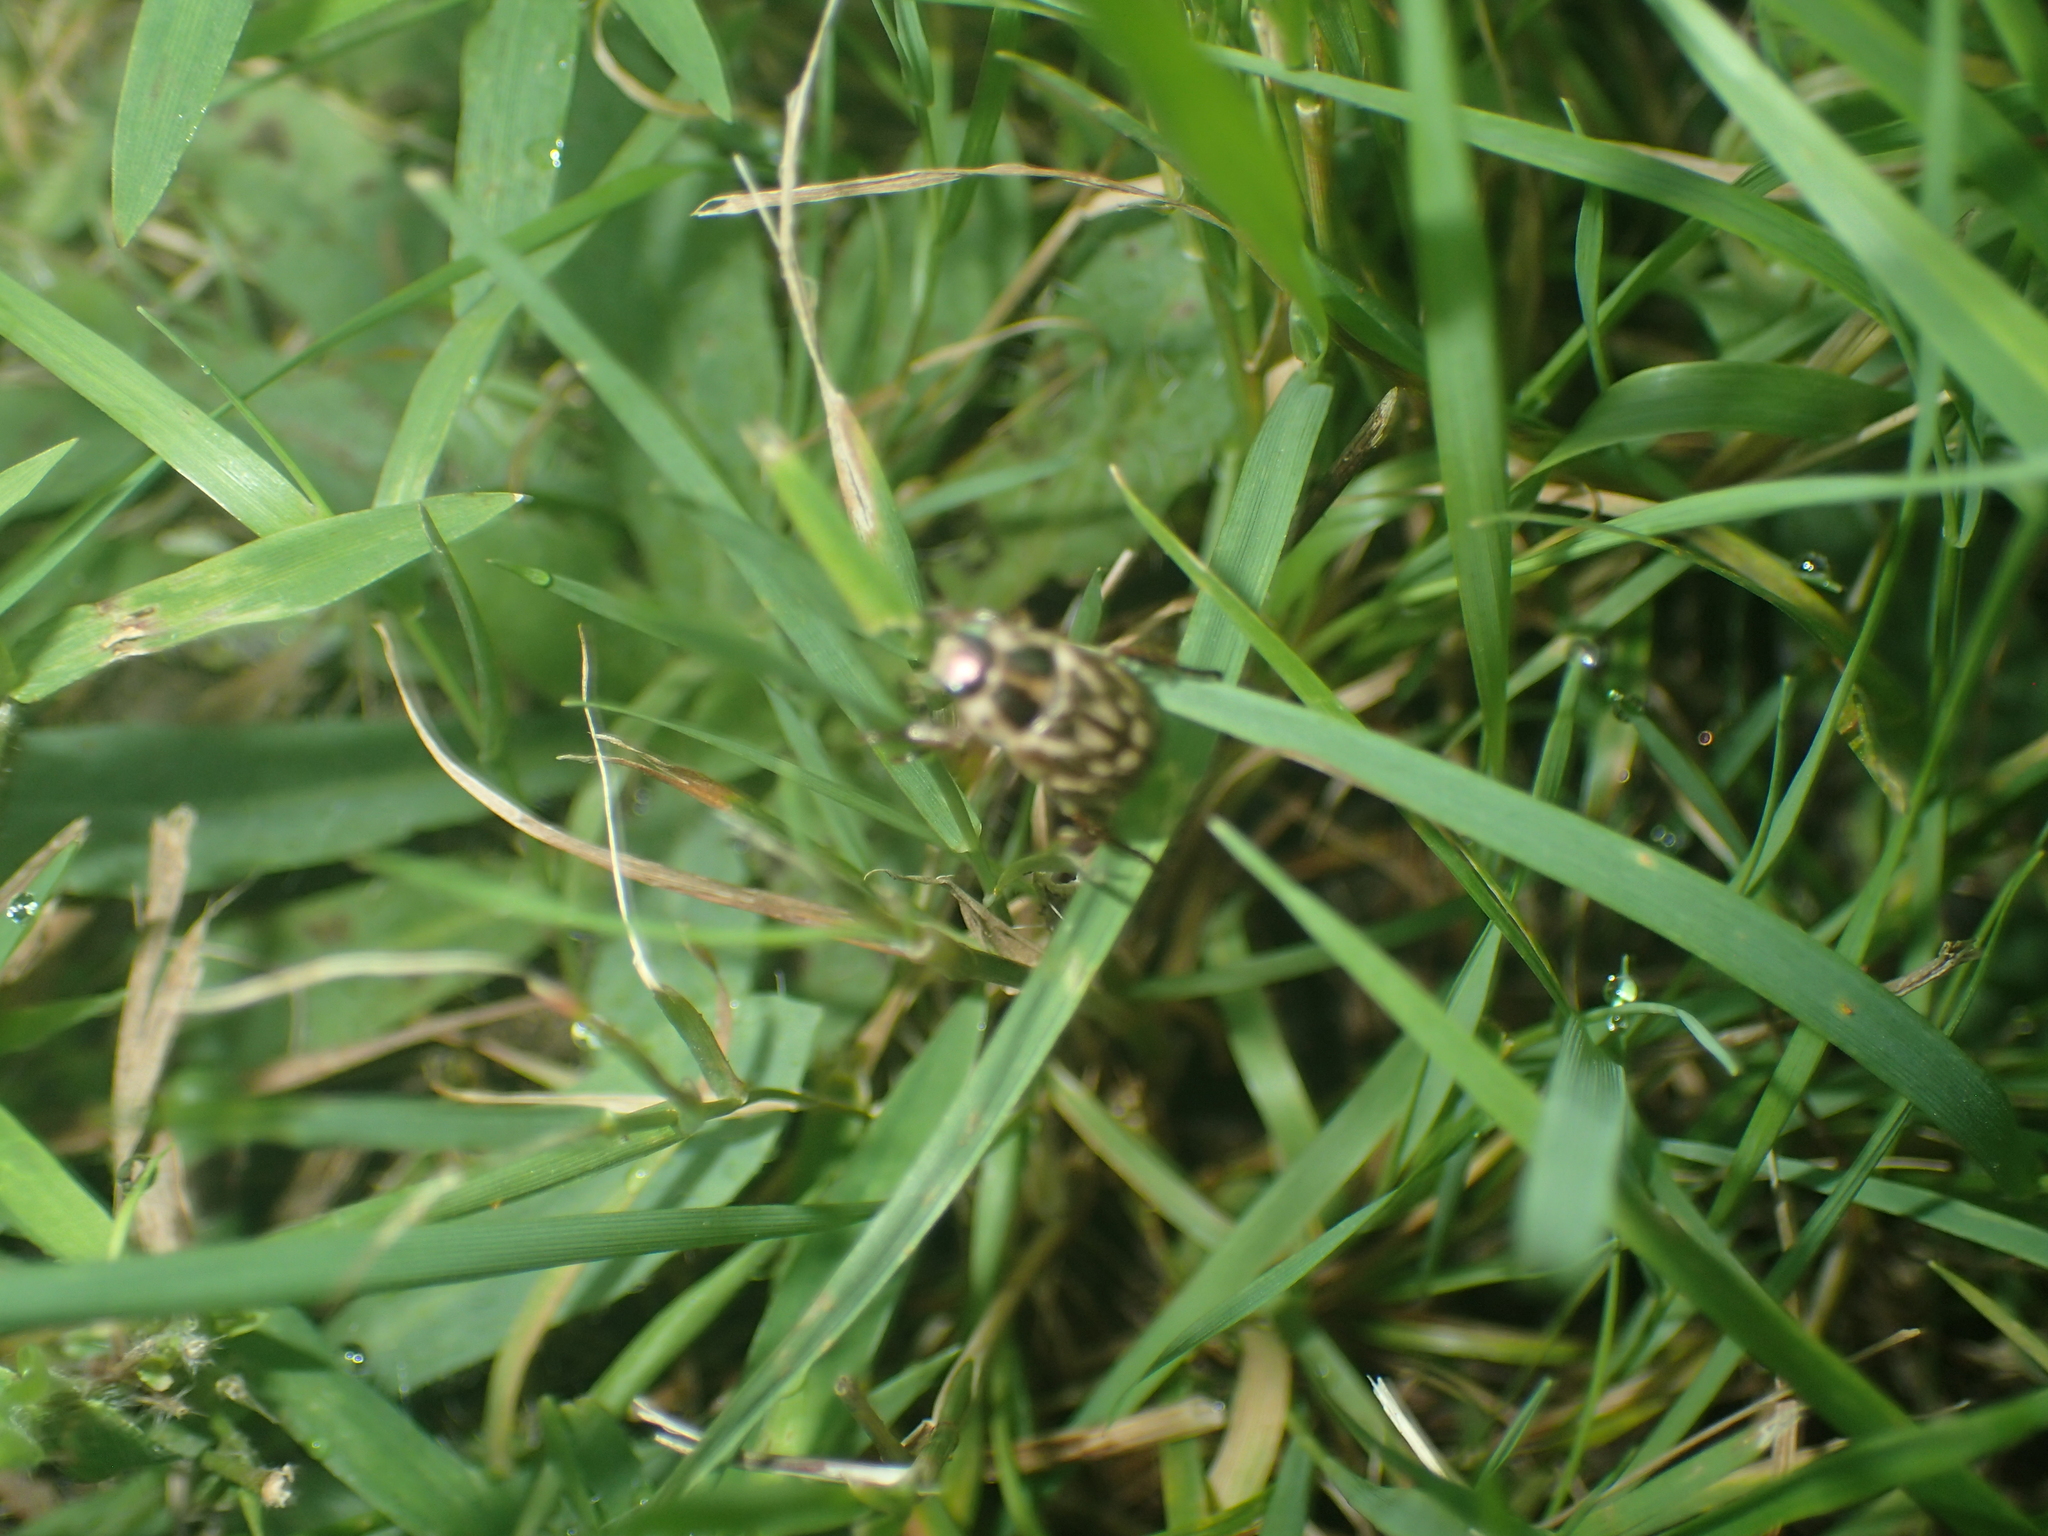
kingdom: Animalia
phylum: Arthropoda
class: Insecta
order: Coleoptera
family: Scarabaeidae
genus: Exomala
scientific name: Exomala orientalis
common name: Oriental beetle
